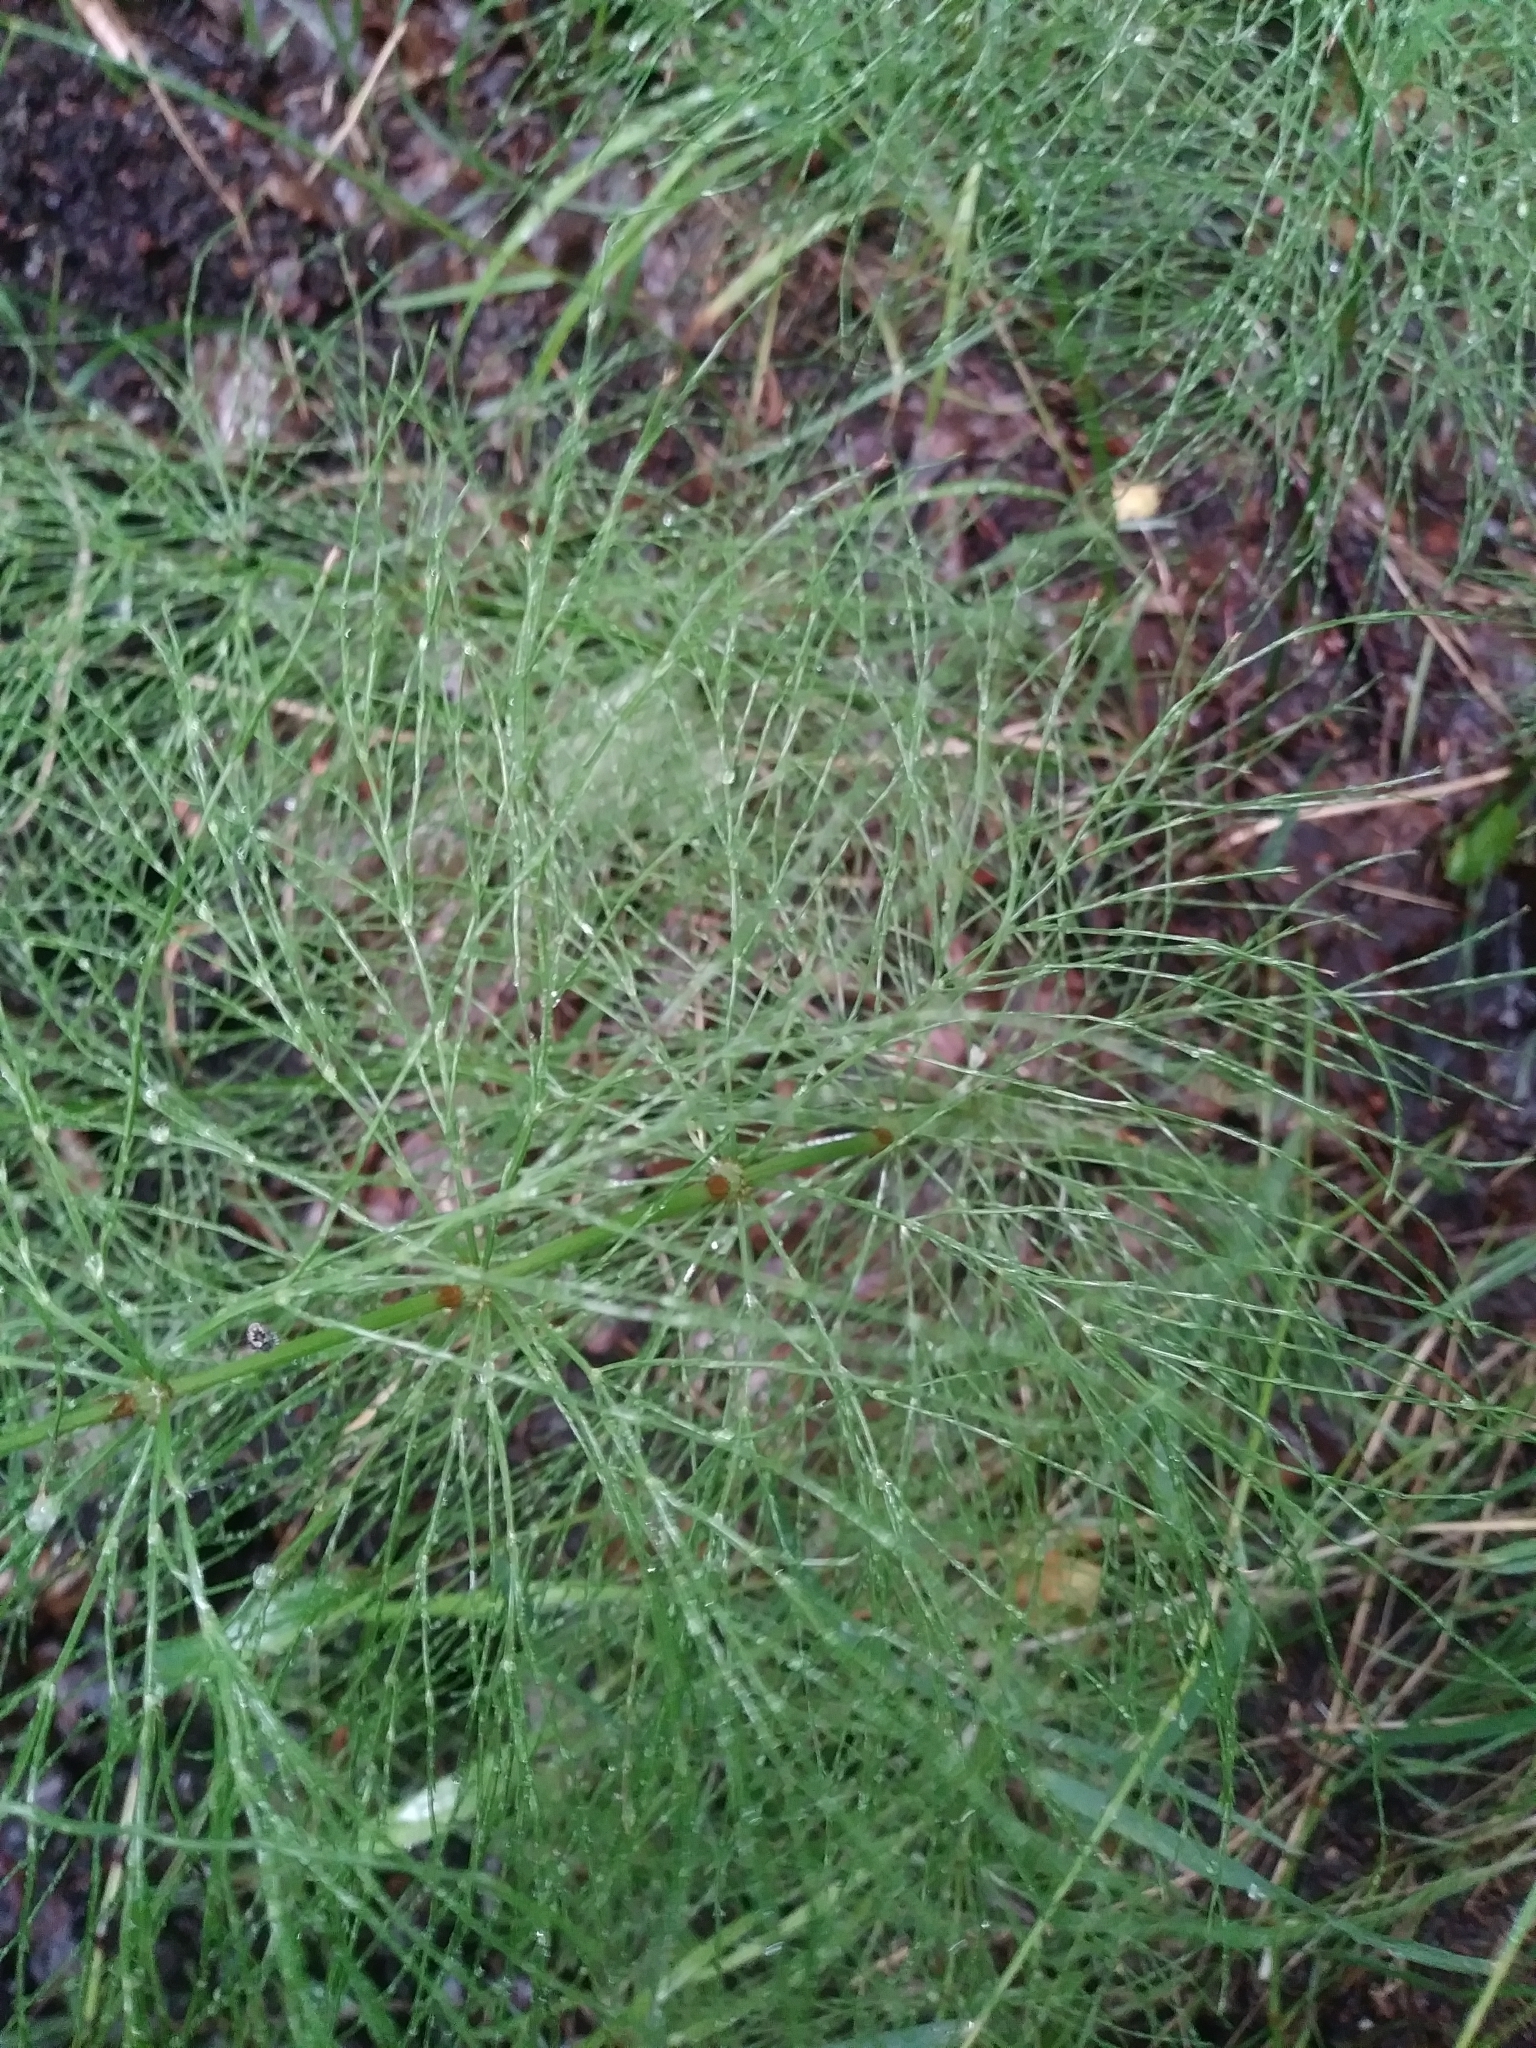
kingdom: Plantae
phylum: Tracheophyta
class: Polypodiopsida
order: Equisetales
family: Equisetaceae
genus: Equisetum
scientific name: Equisetum sylvaticum
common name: Wood horsetail
